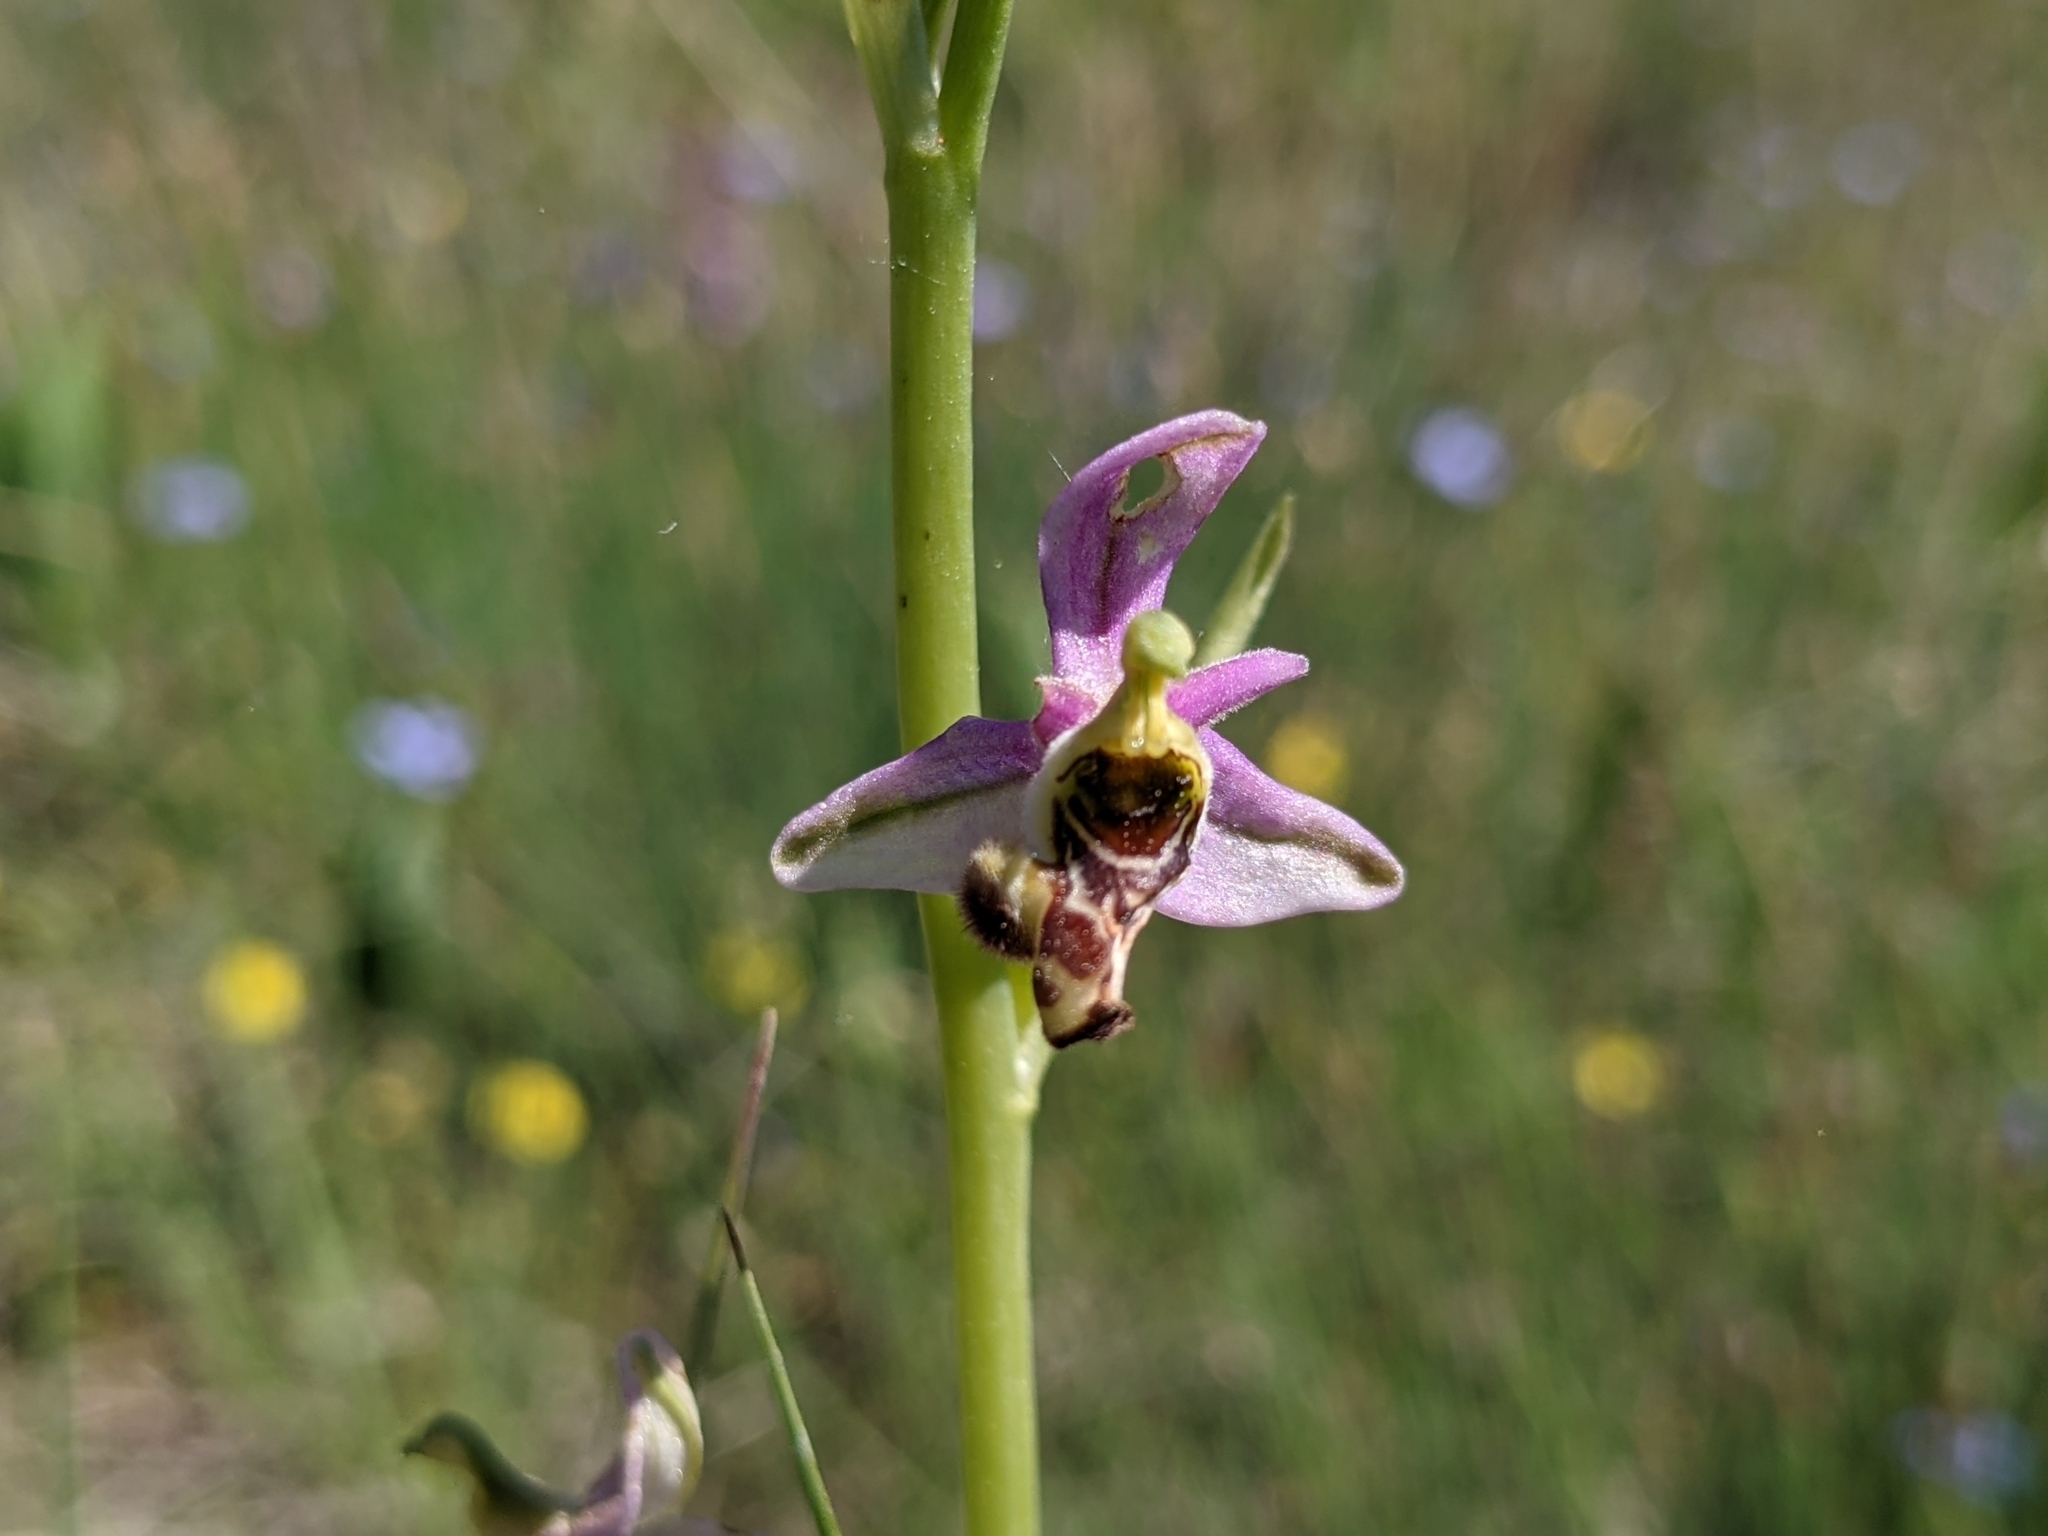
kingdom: Plantae
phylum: Tracheophyta
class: Liliopsida
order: Asparagales
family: Orchidaceae
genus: Ophrys
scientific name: Ophrys scolopax
